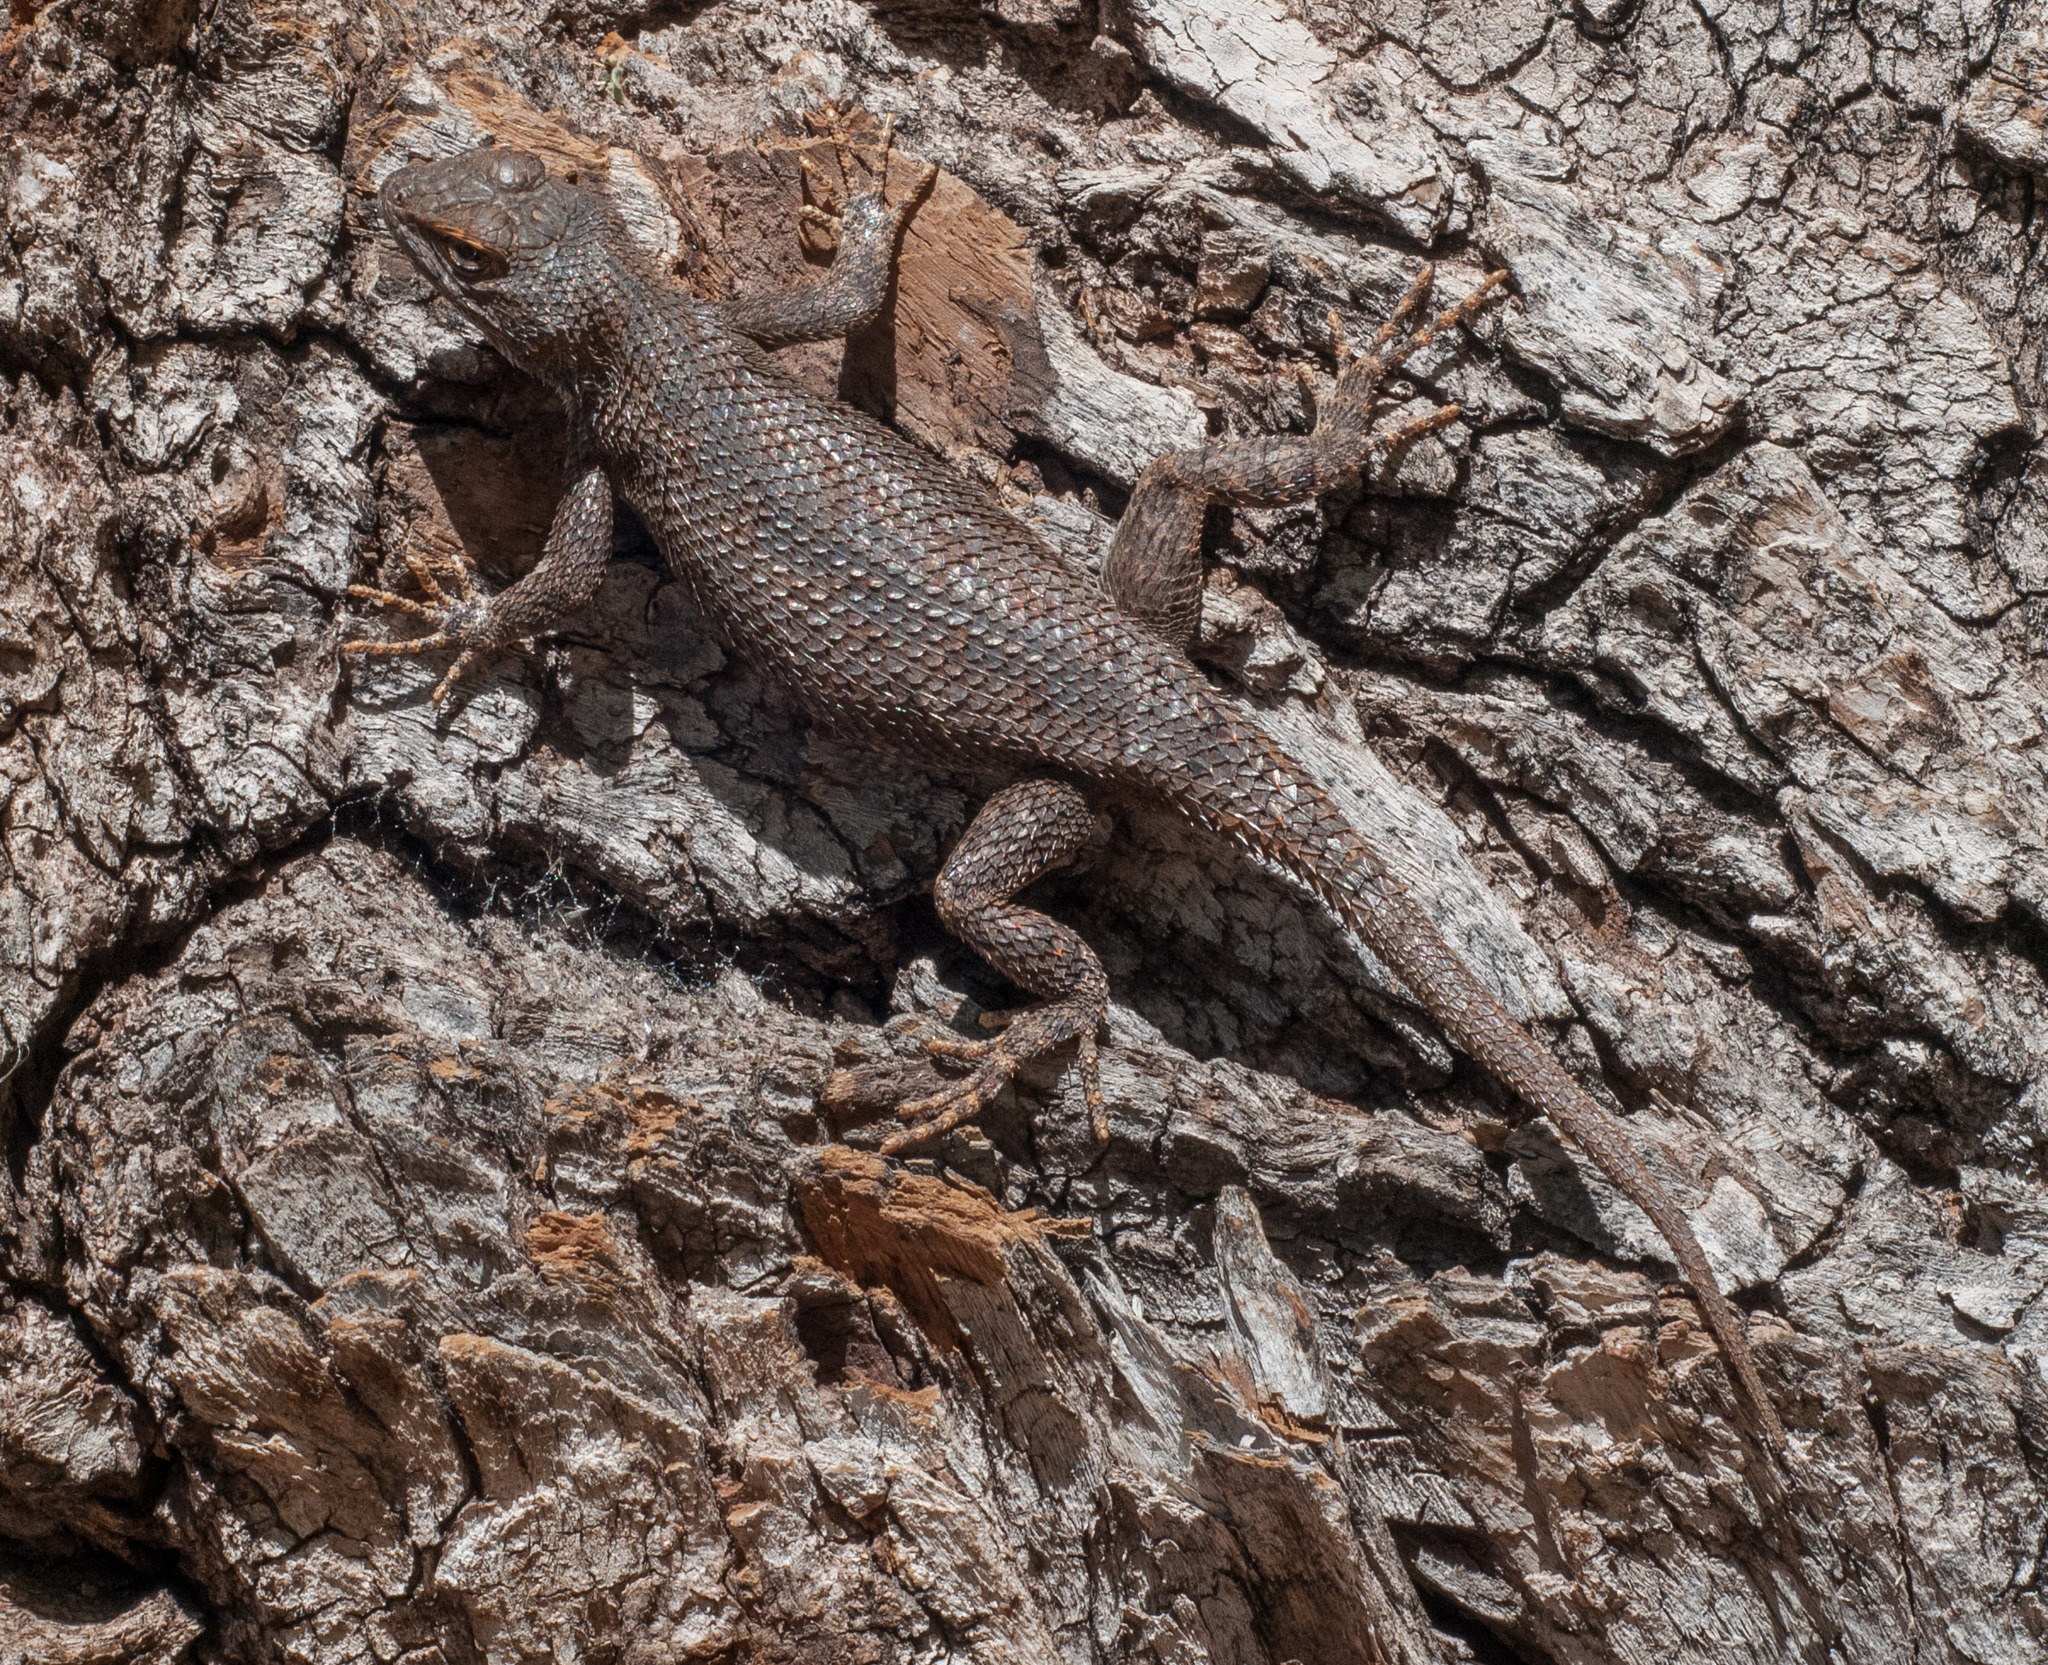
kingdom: Animalia
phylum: Chordata
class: Squamata
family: Phrynosomatidae
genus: Sceloporus
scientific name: Sceloporus tristichus
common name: Plateau fence lizard
